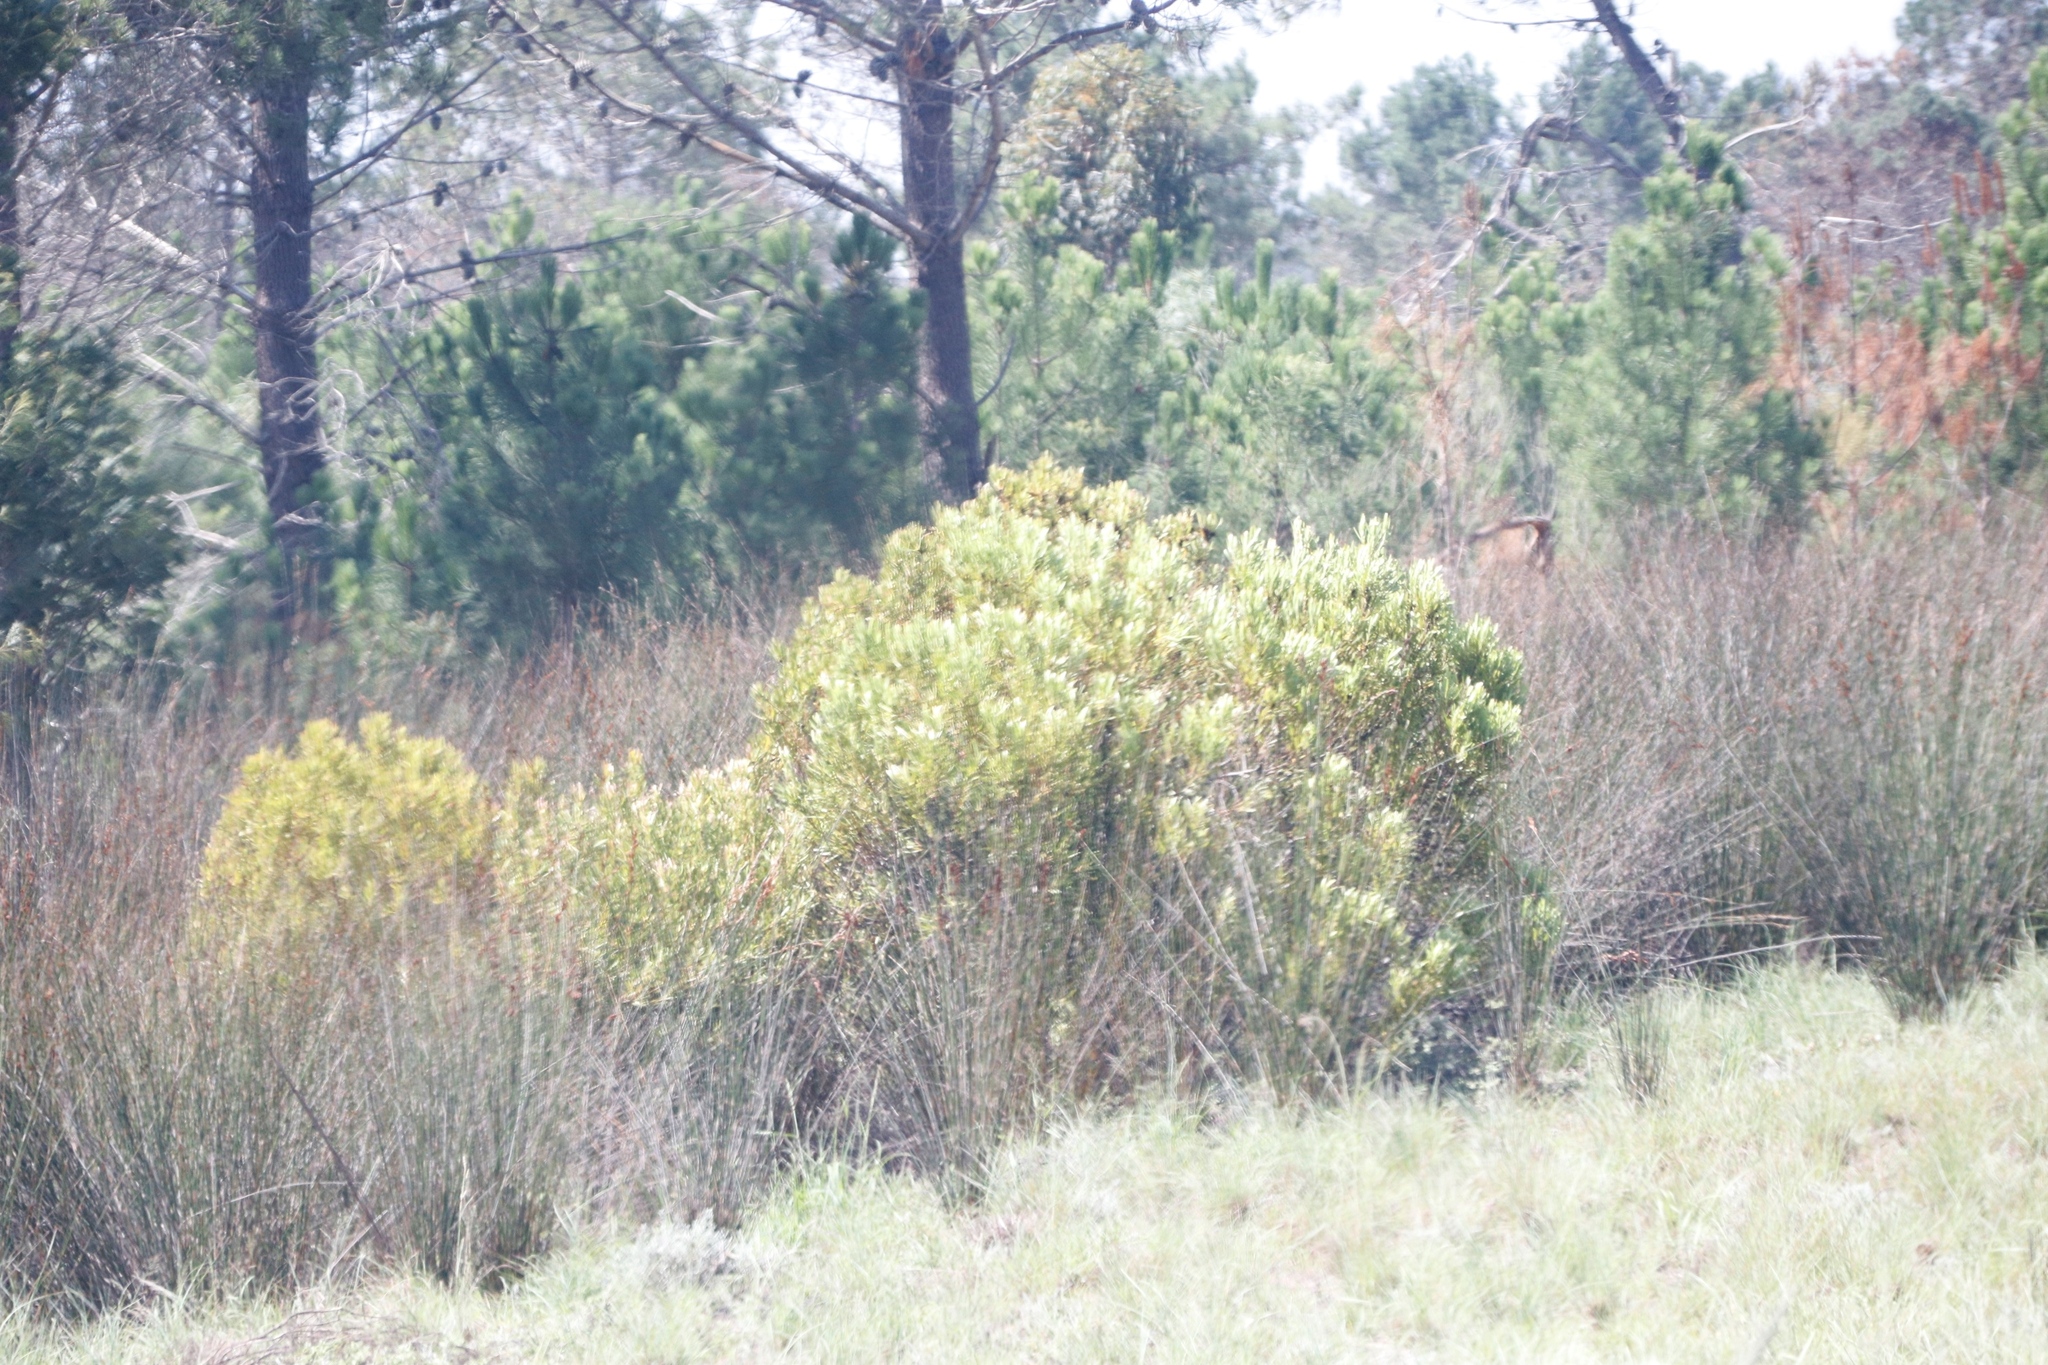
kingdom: Plantae
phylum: Tracheophyta
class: Magnoliopsida
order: Proteales
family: Proteaceae
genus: Leucadendron
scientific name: Leucadendron eucalyptifolium
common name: Gum-leaved conebush
